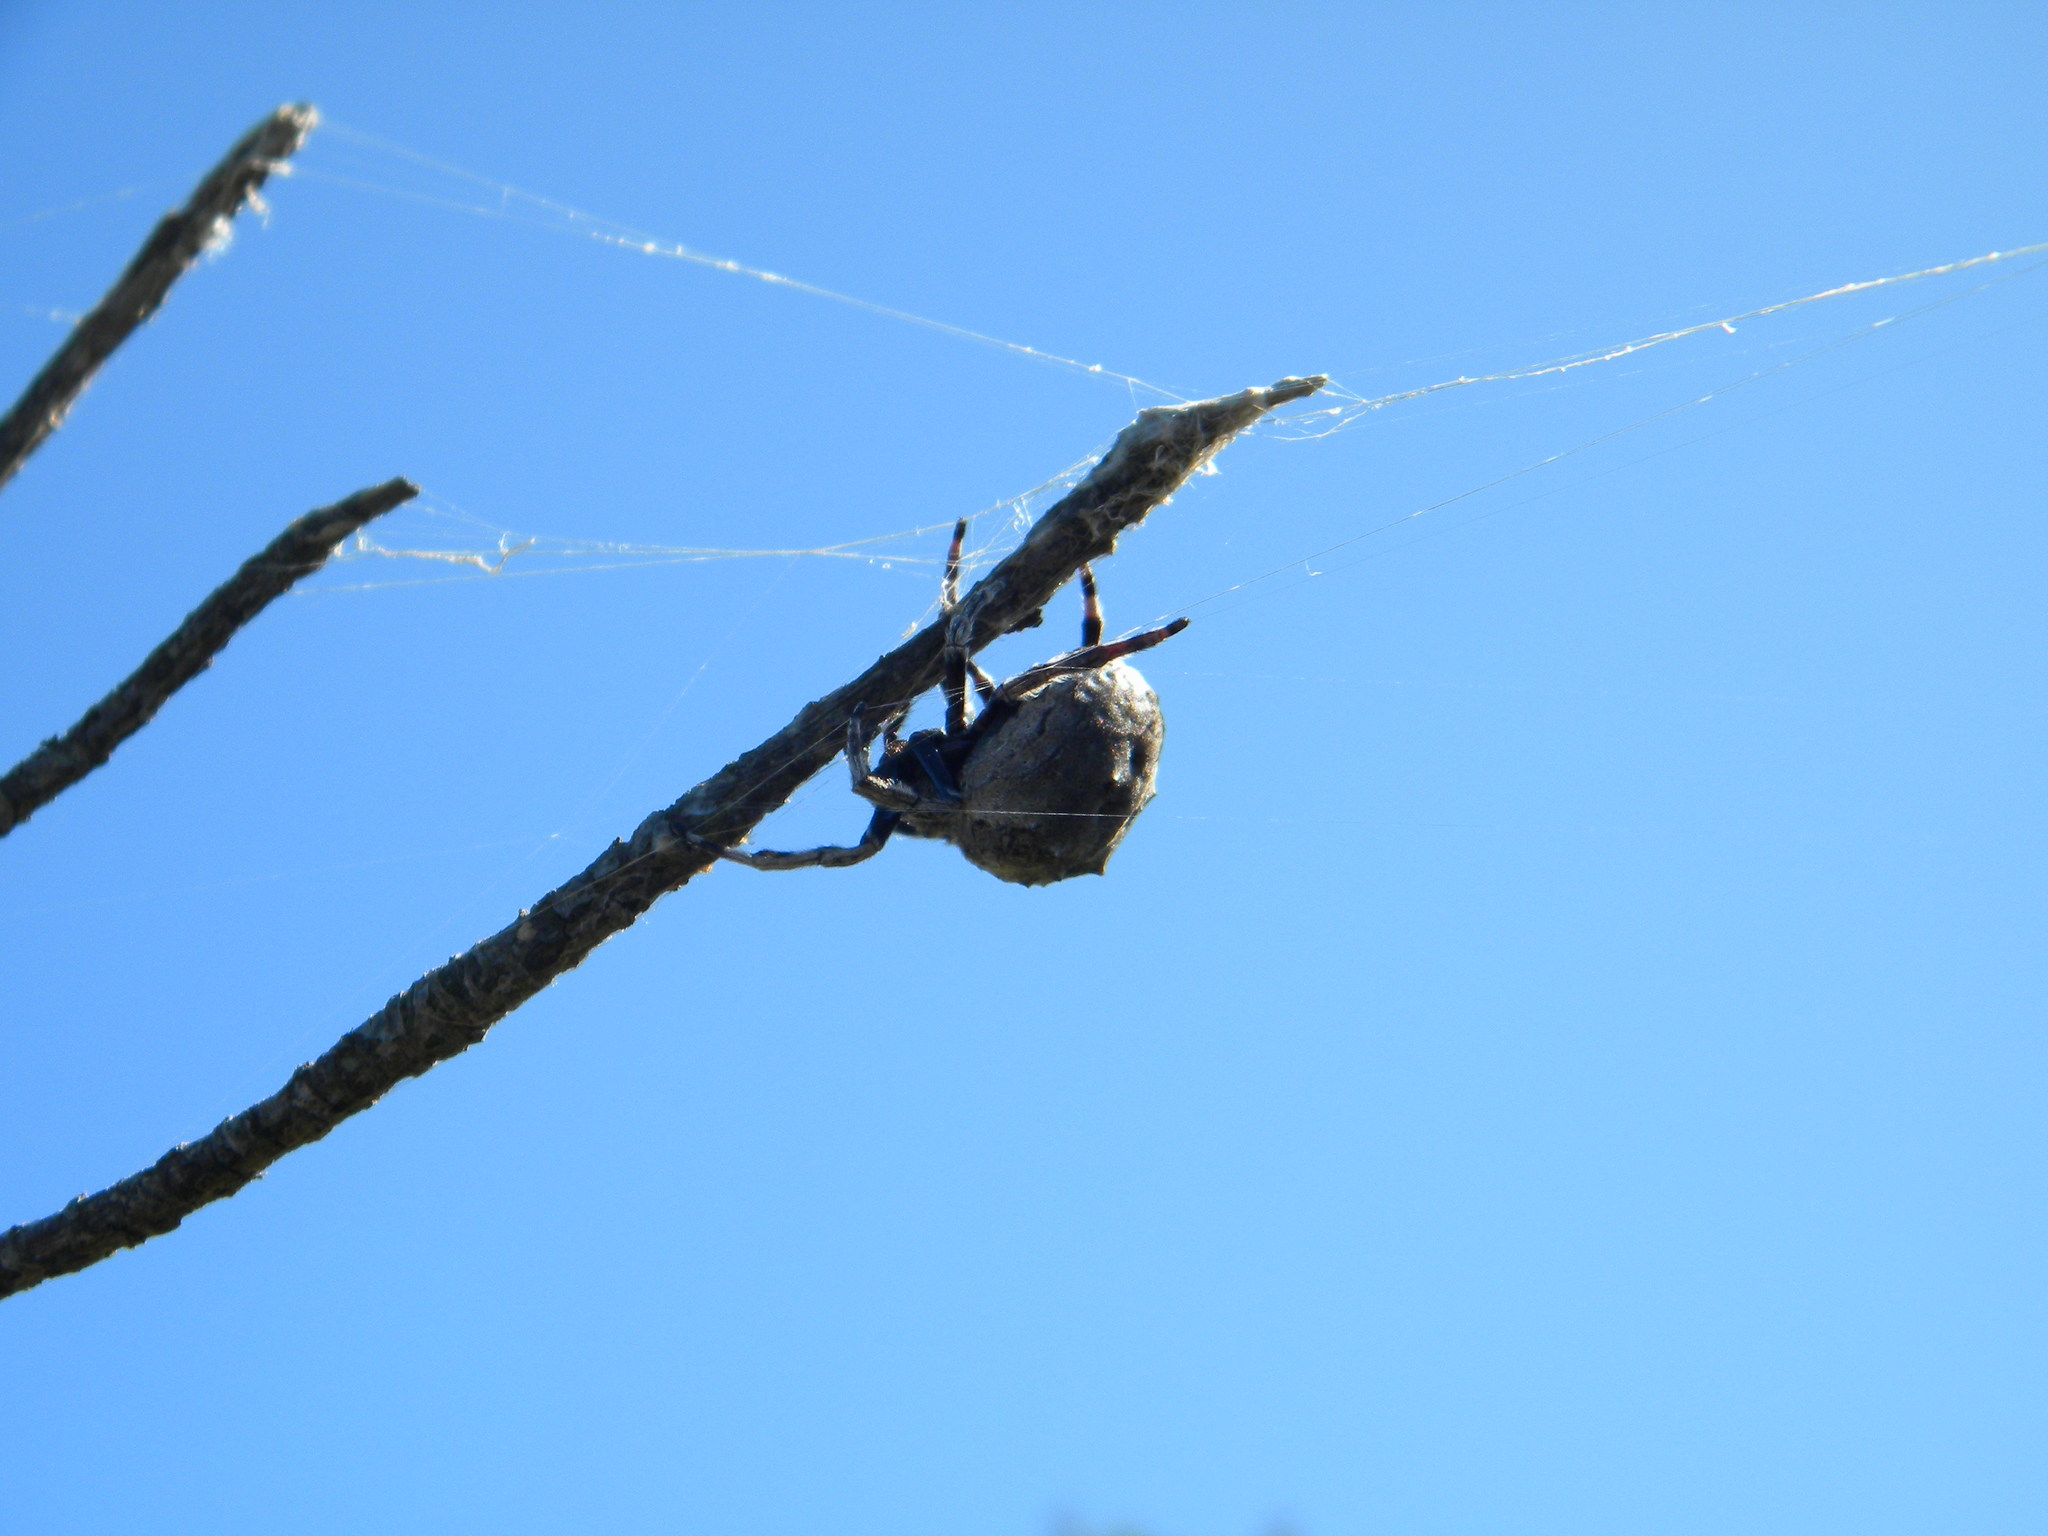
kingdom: Animalia
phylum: Arthropoda
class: Arachnida
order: Araneae
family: Araneidae
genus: Caerostris
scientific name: Caerostris sexcuspidata
